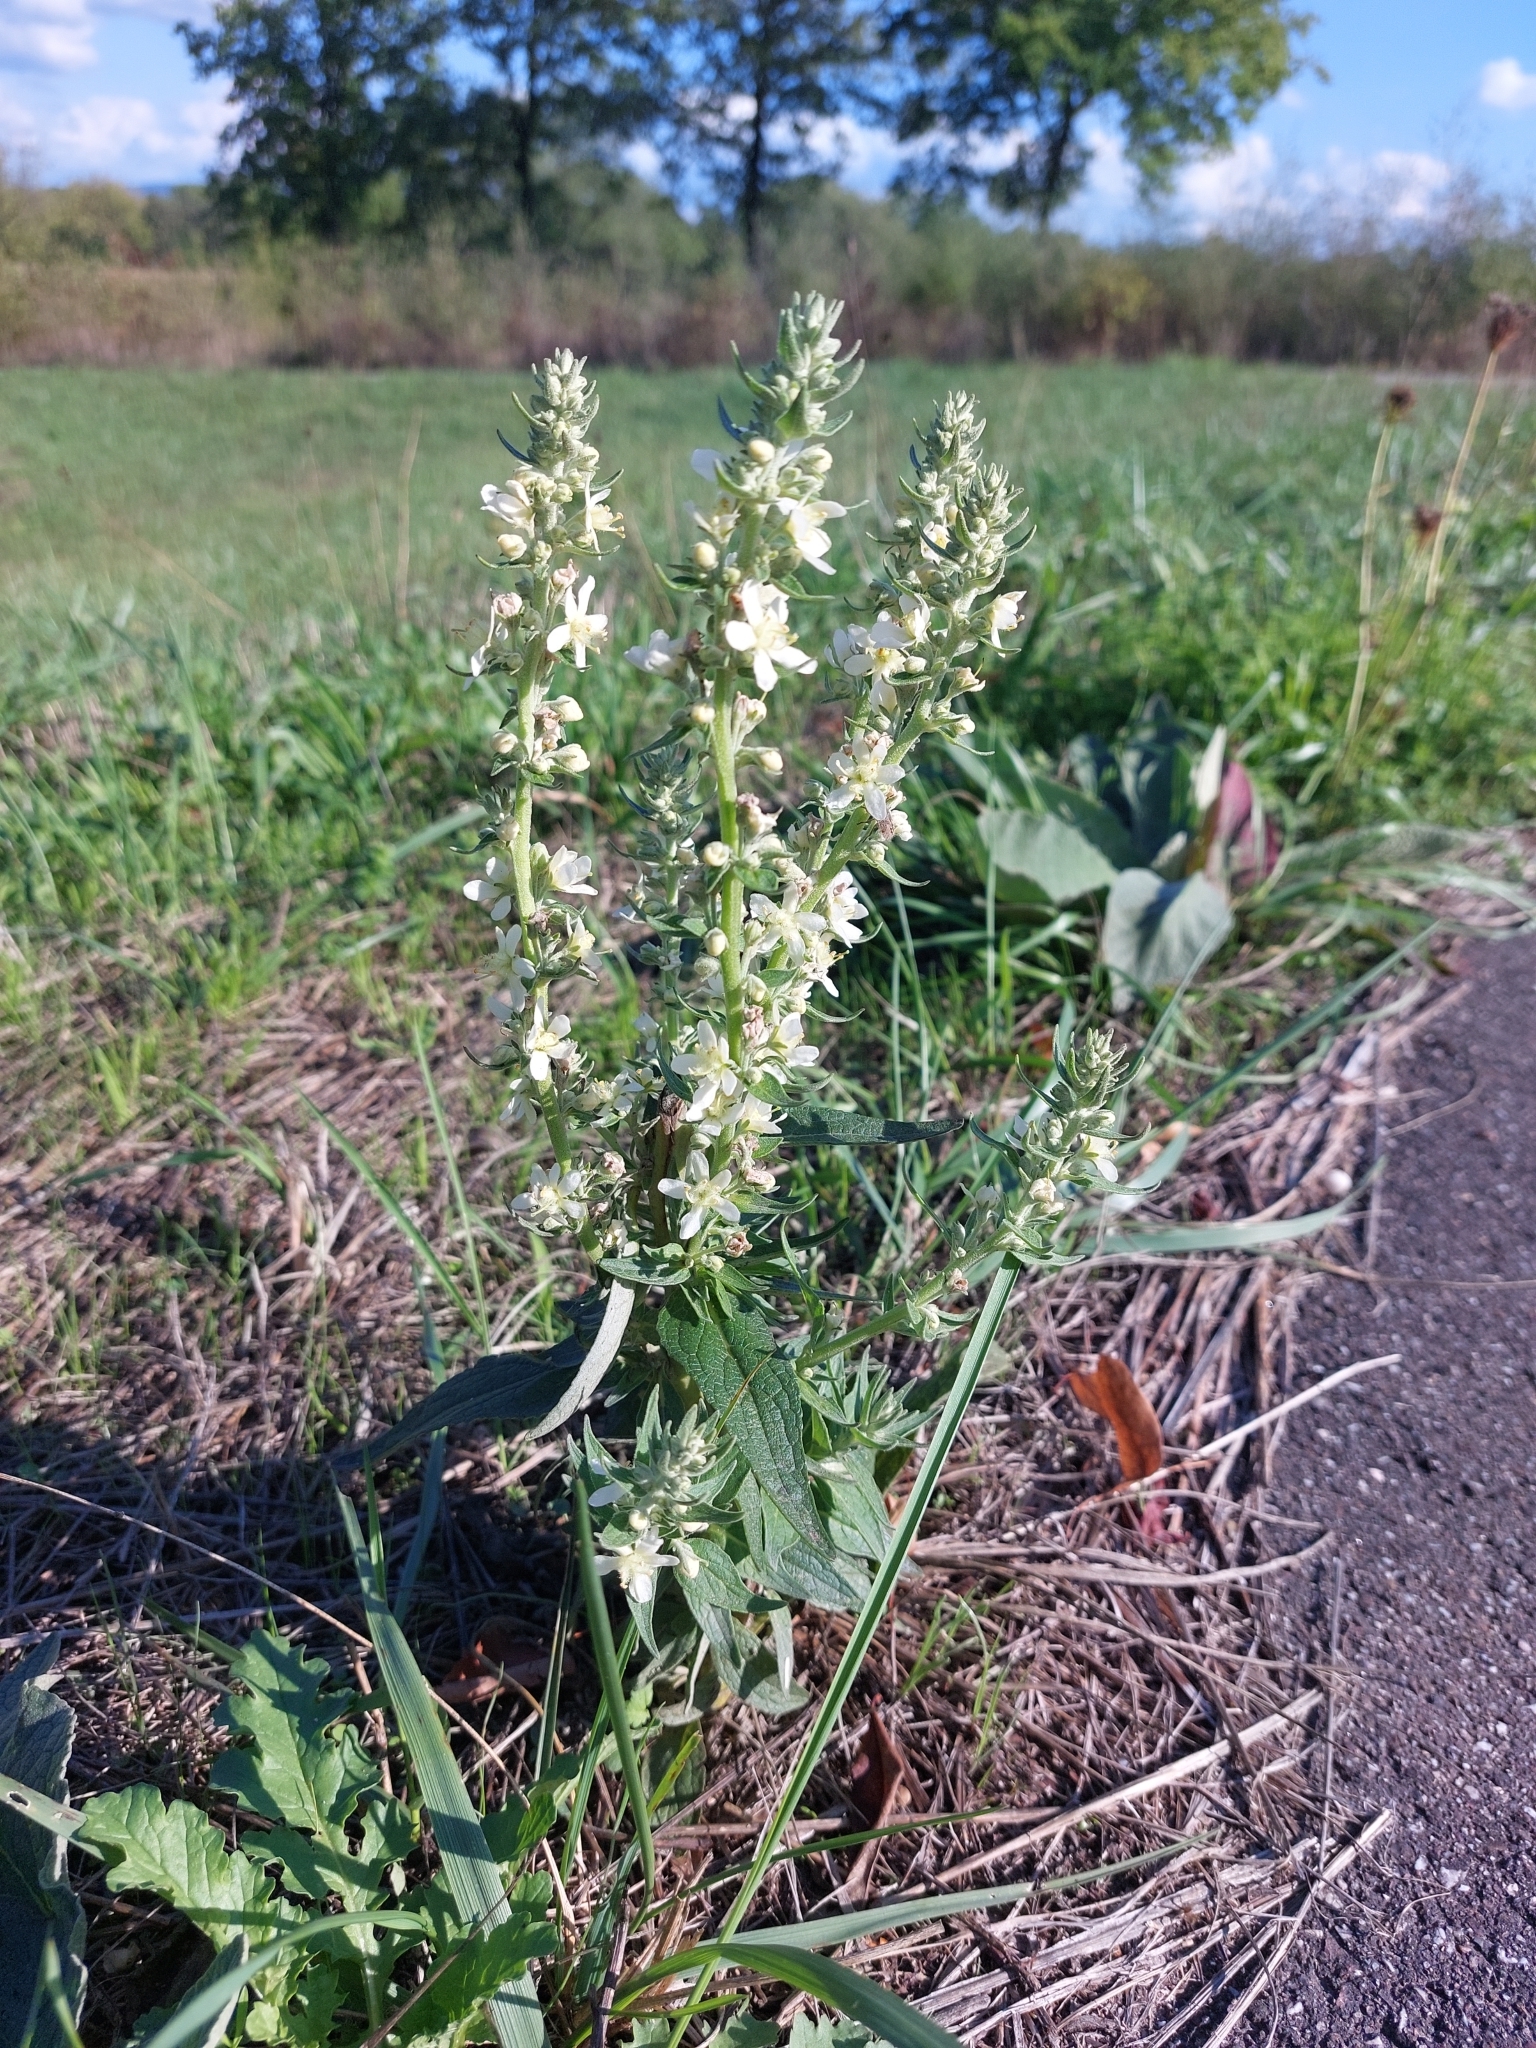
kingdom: Plantae
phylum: Tracheophyta
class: Magnoliopsida
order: Lamiales
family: Scrophulariaceae
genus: Verbascum
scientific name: Verbascum lychnitis
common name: White mullein
